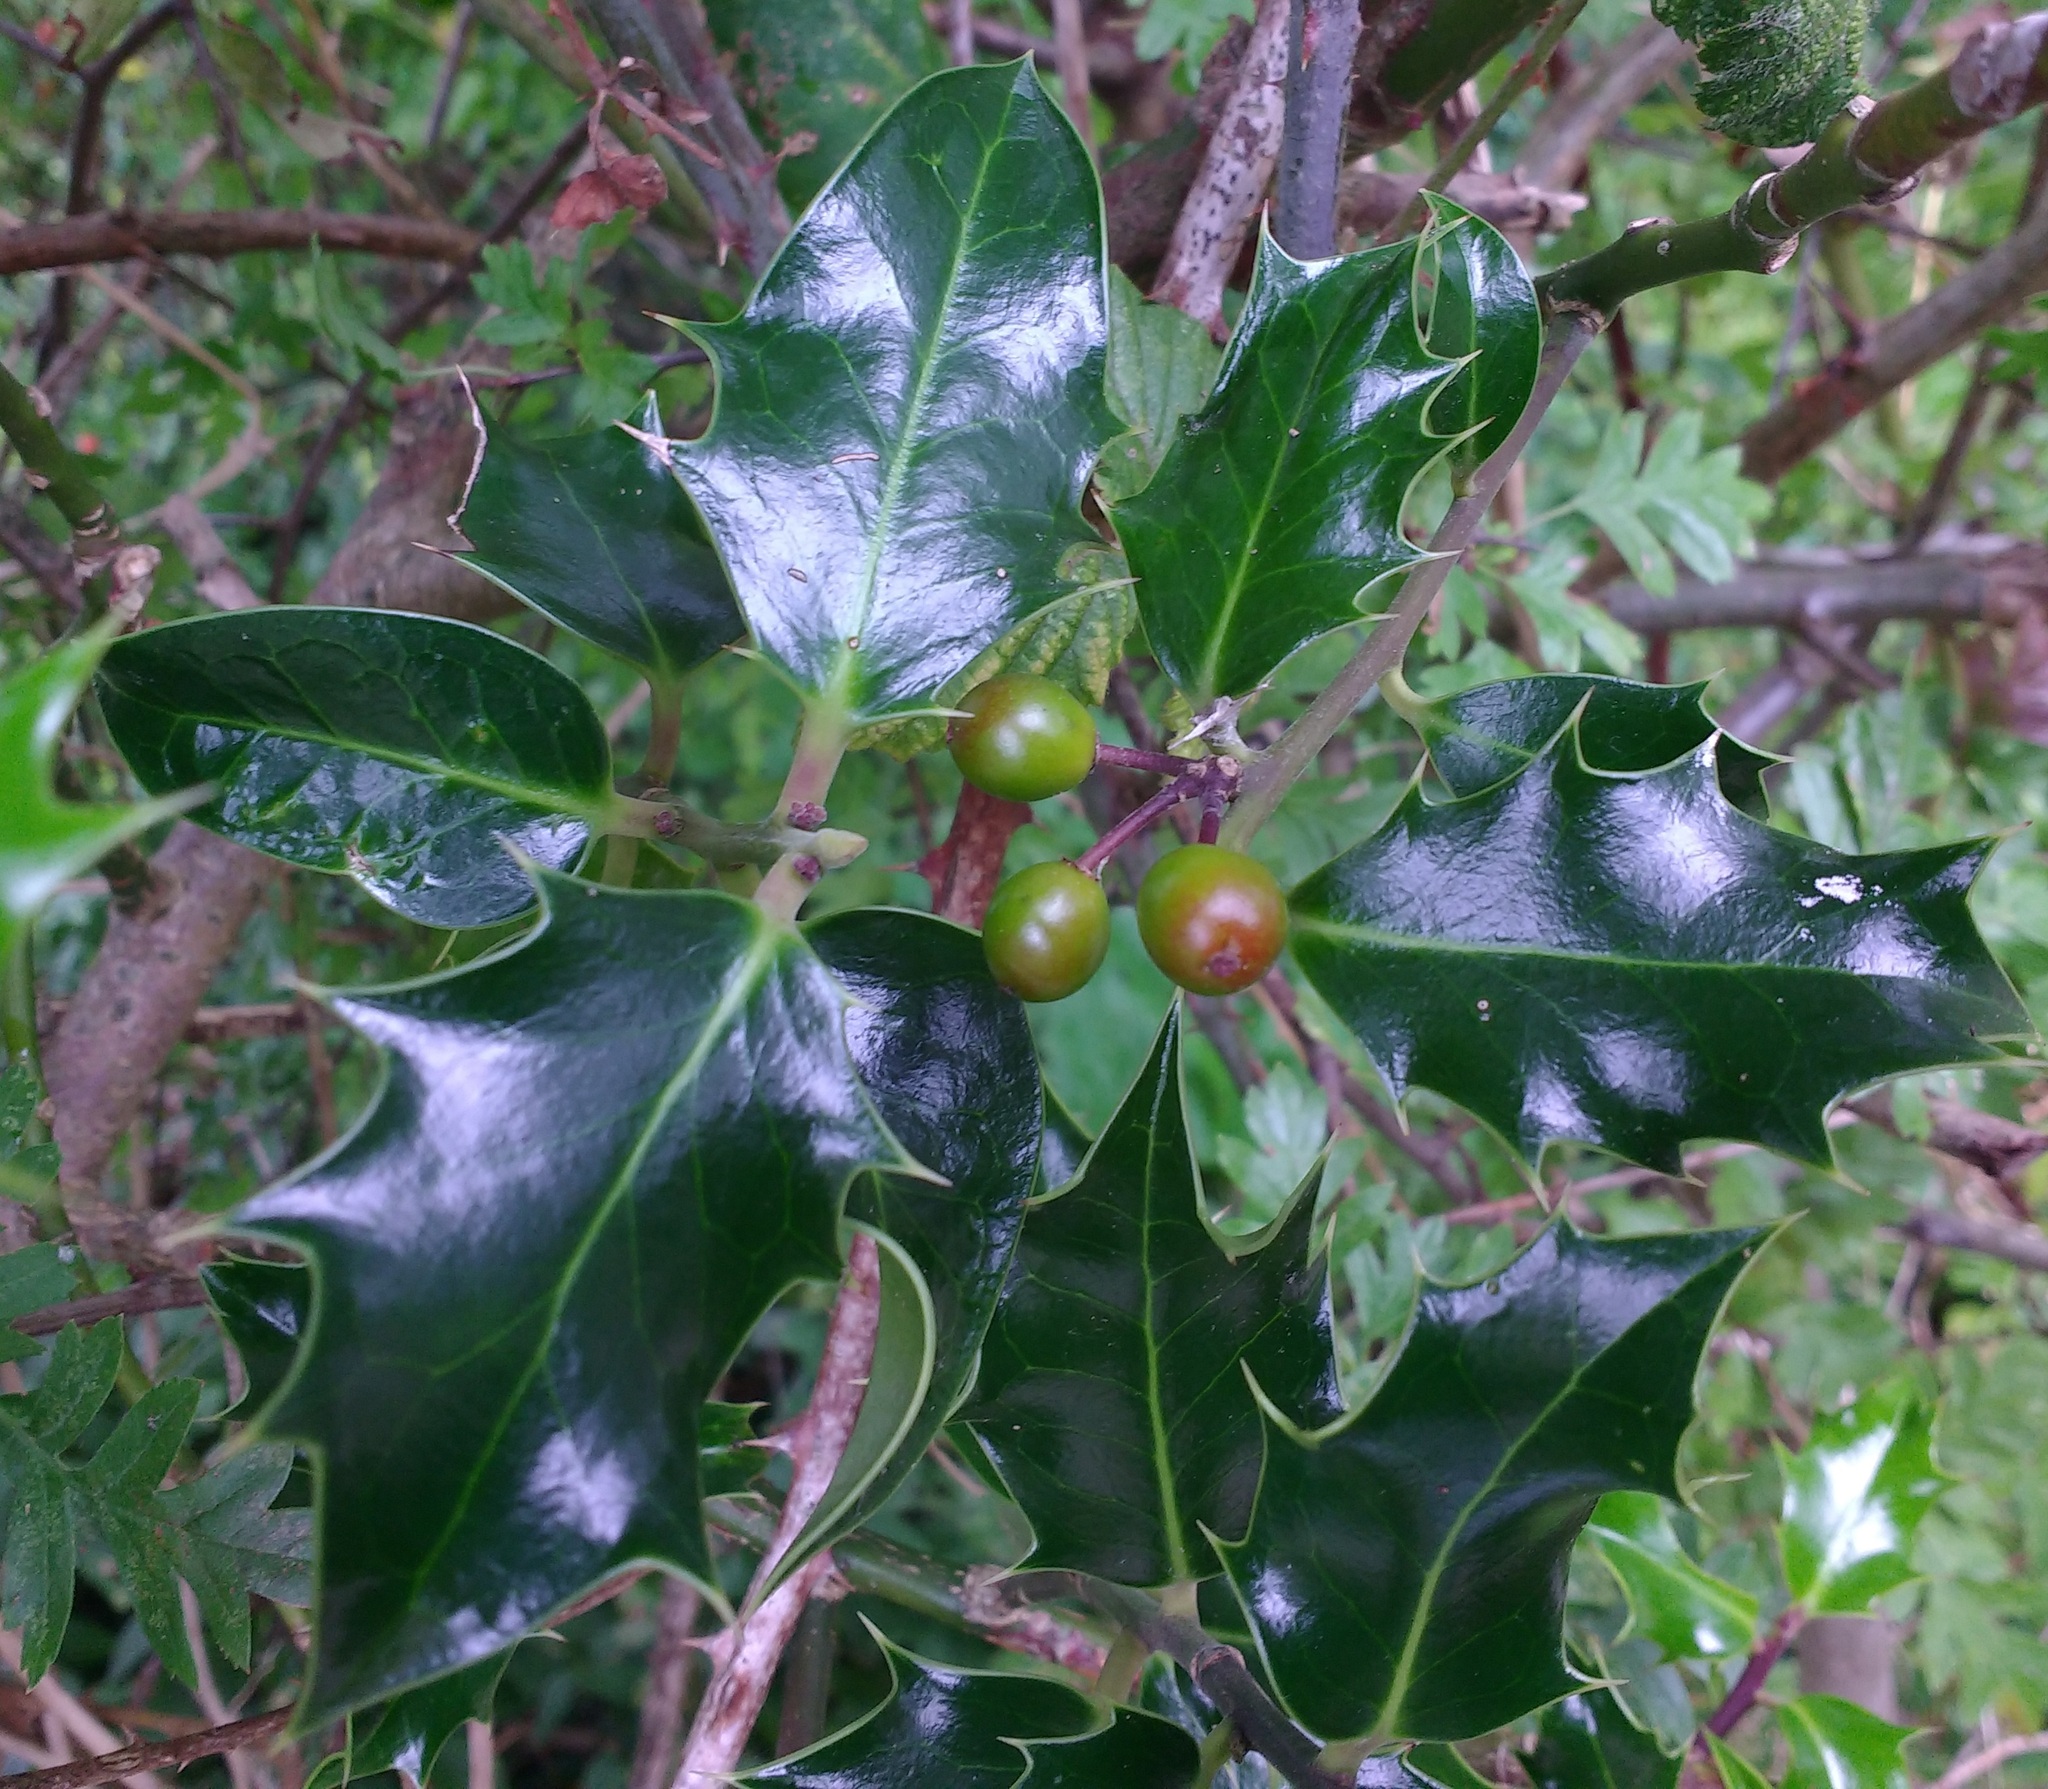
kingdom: Plantae
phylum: Tracheophyta
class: Magnoliopsida
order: Aquifoliales
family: Aquifoliaceae
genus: Ilex
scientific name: Ilex aquifolium
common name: English holly
